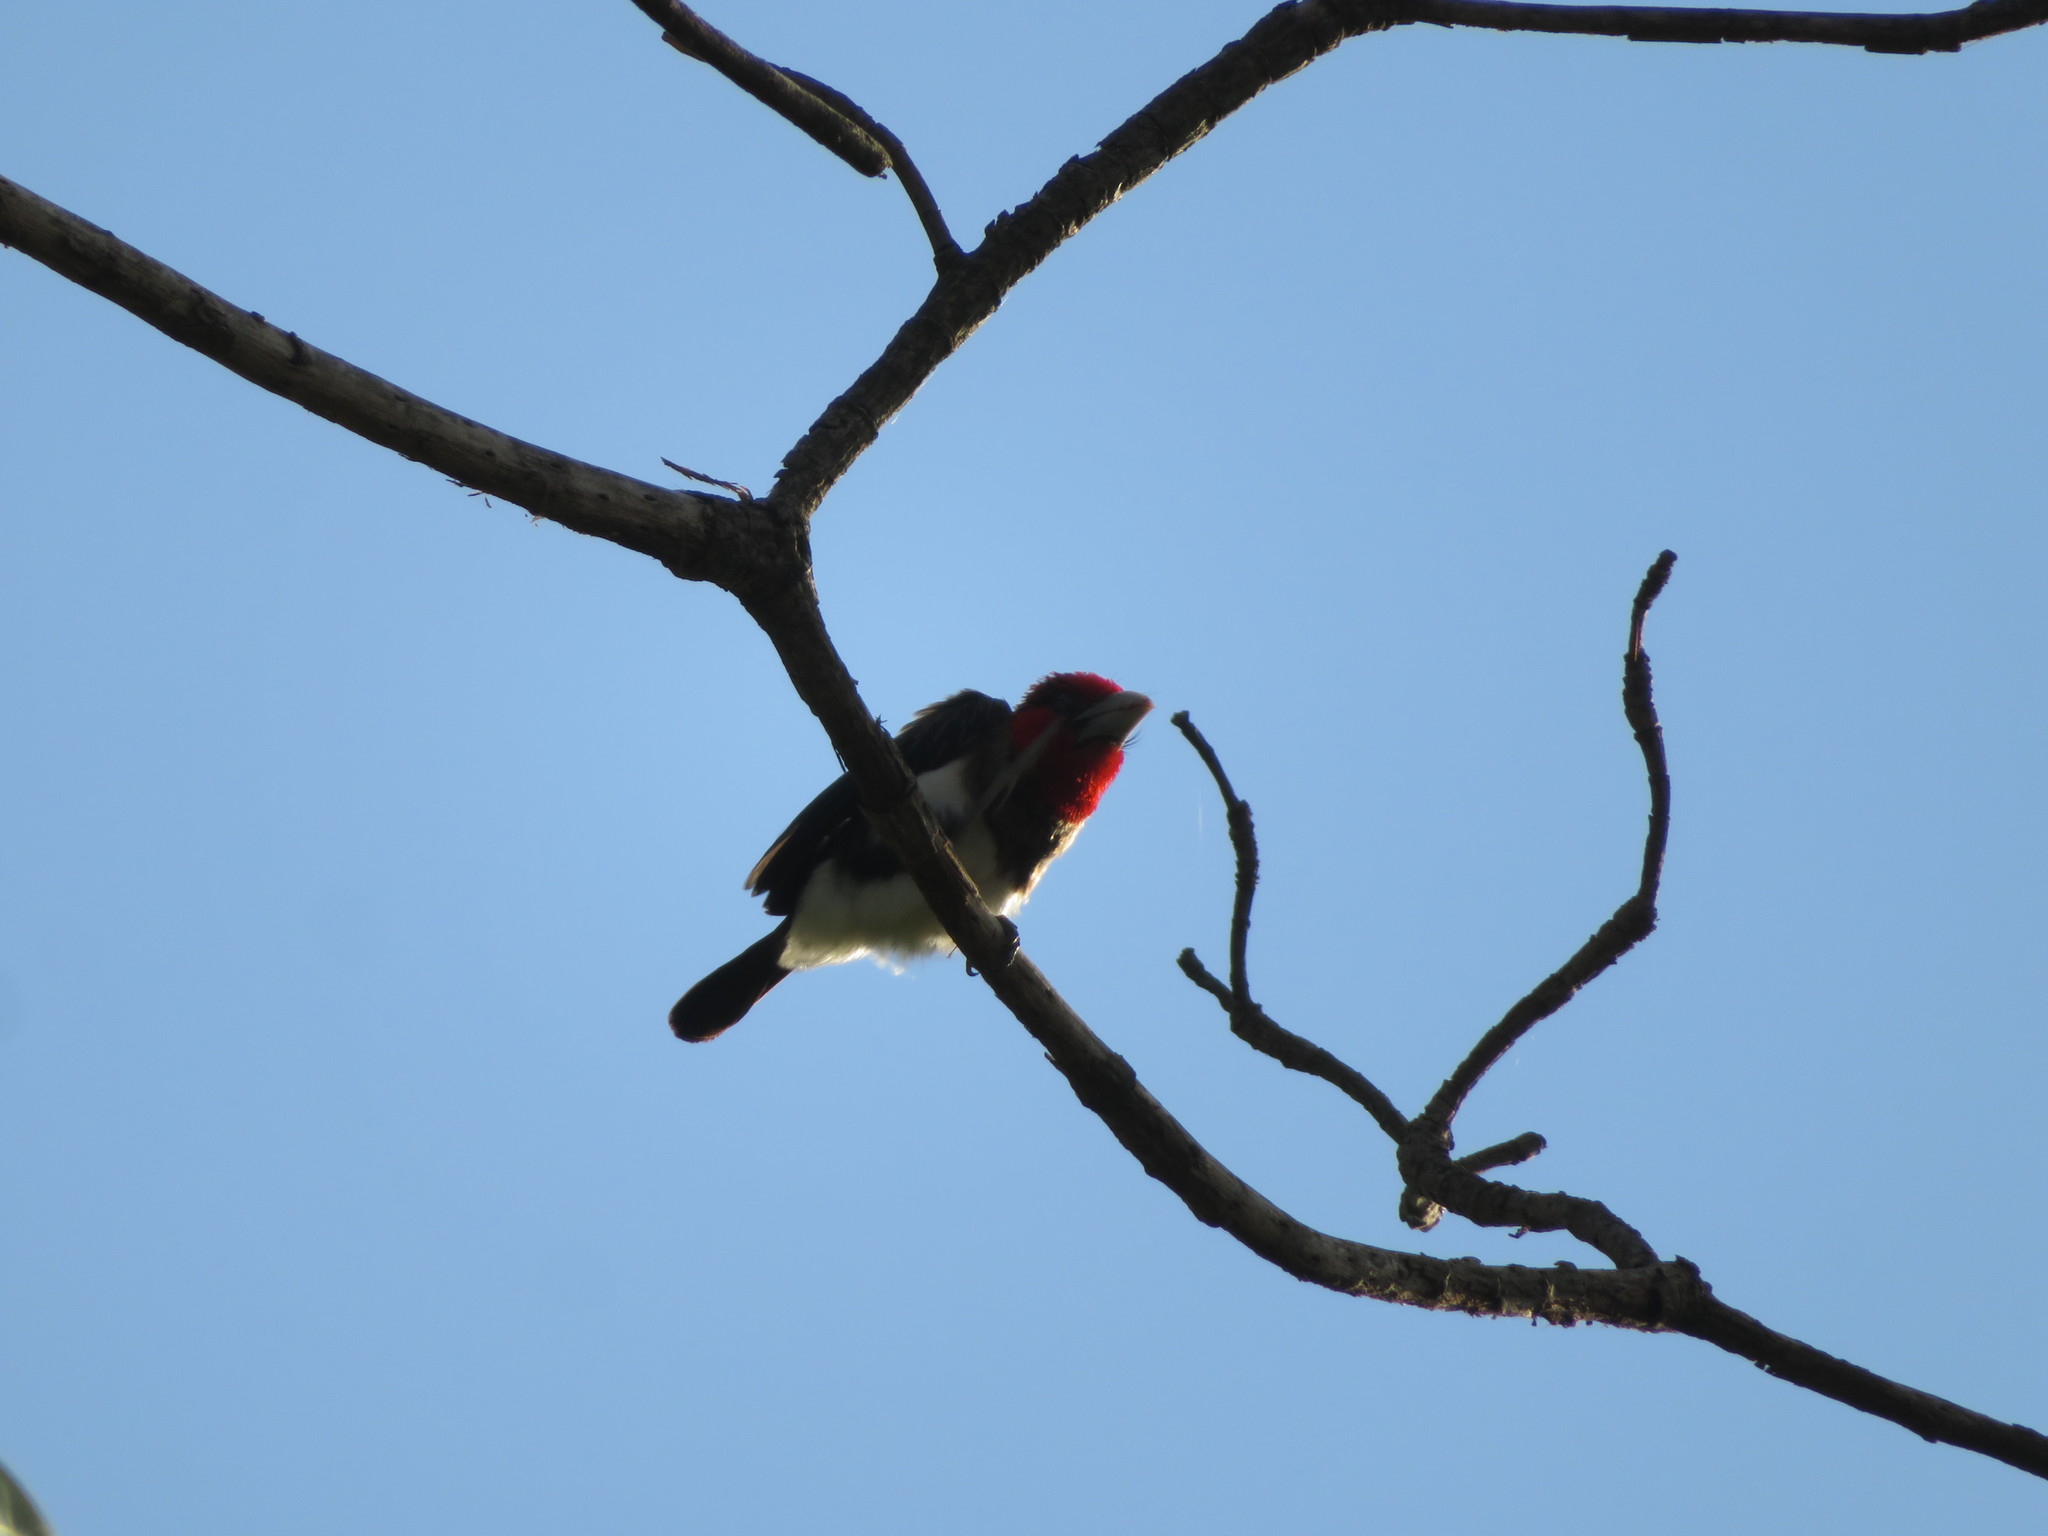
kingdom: Animalia
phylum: Chordata
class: Aves
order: Piciformes
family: Lybiidae
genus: Lybius
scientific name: Lybius melanopterus
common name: Brown-breasted barbet
